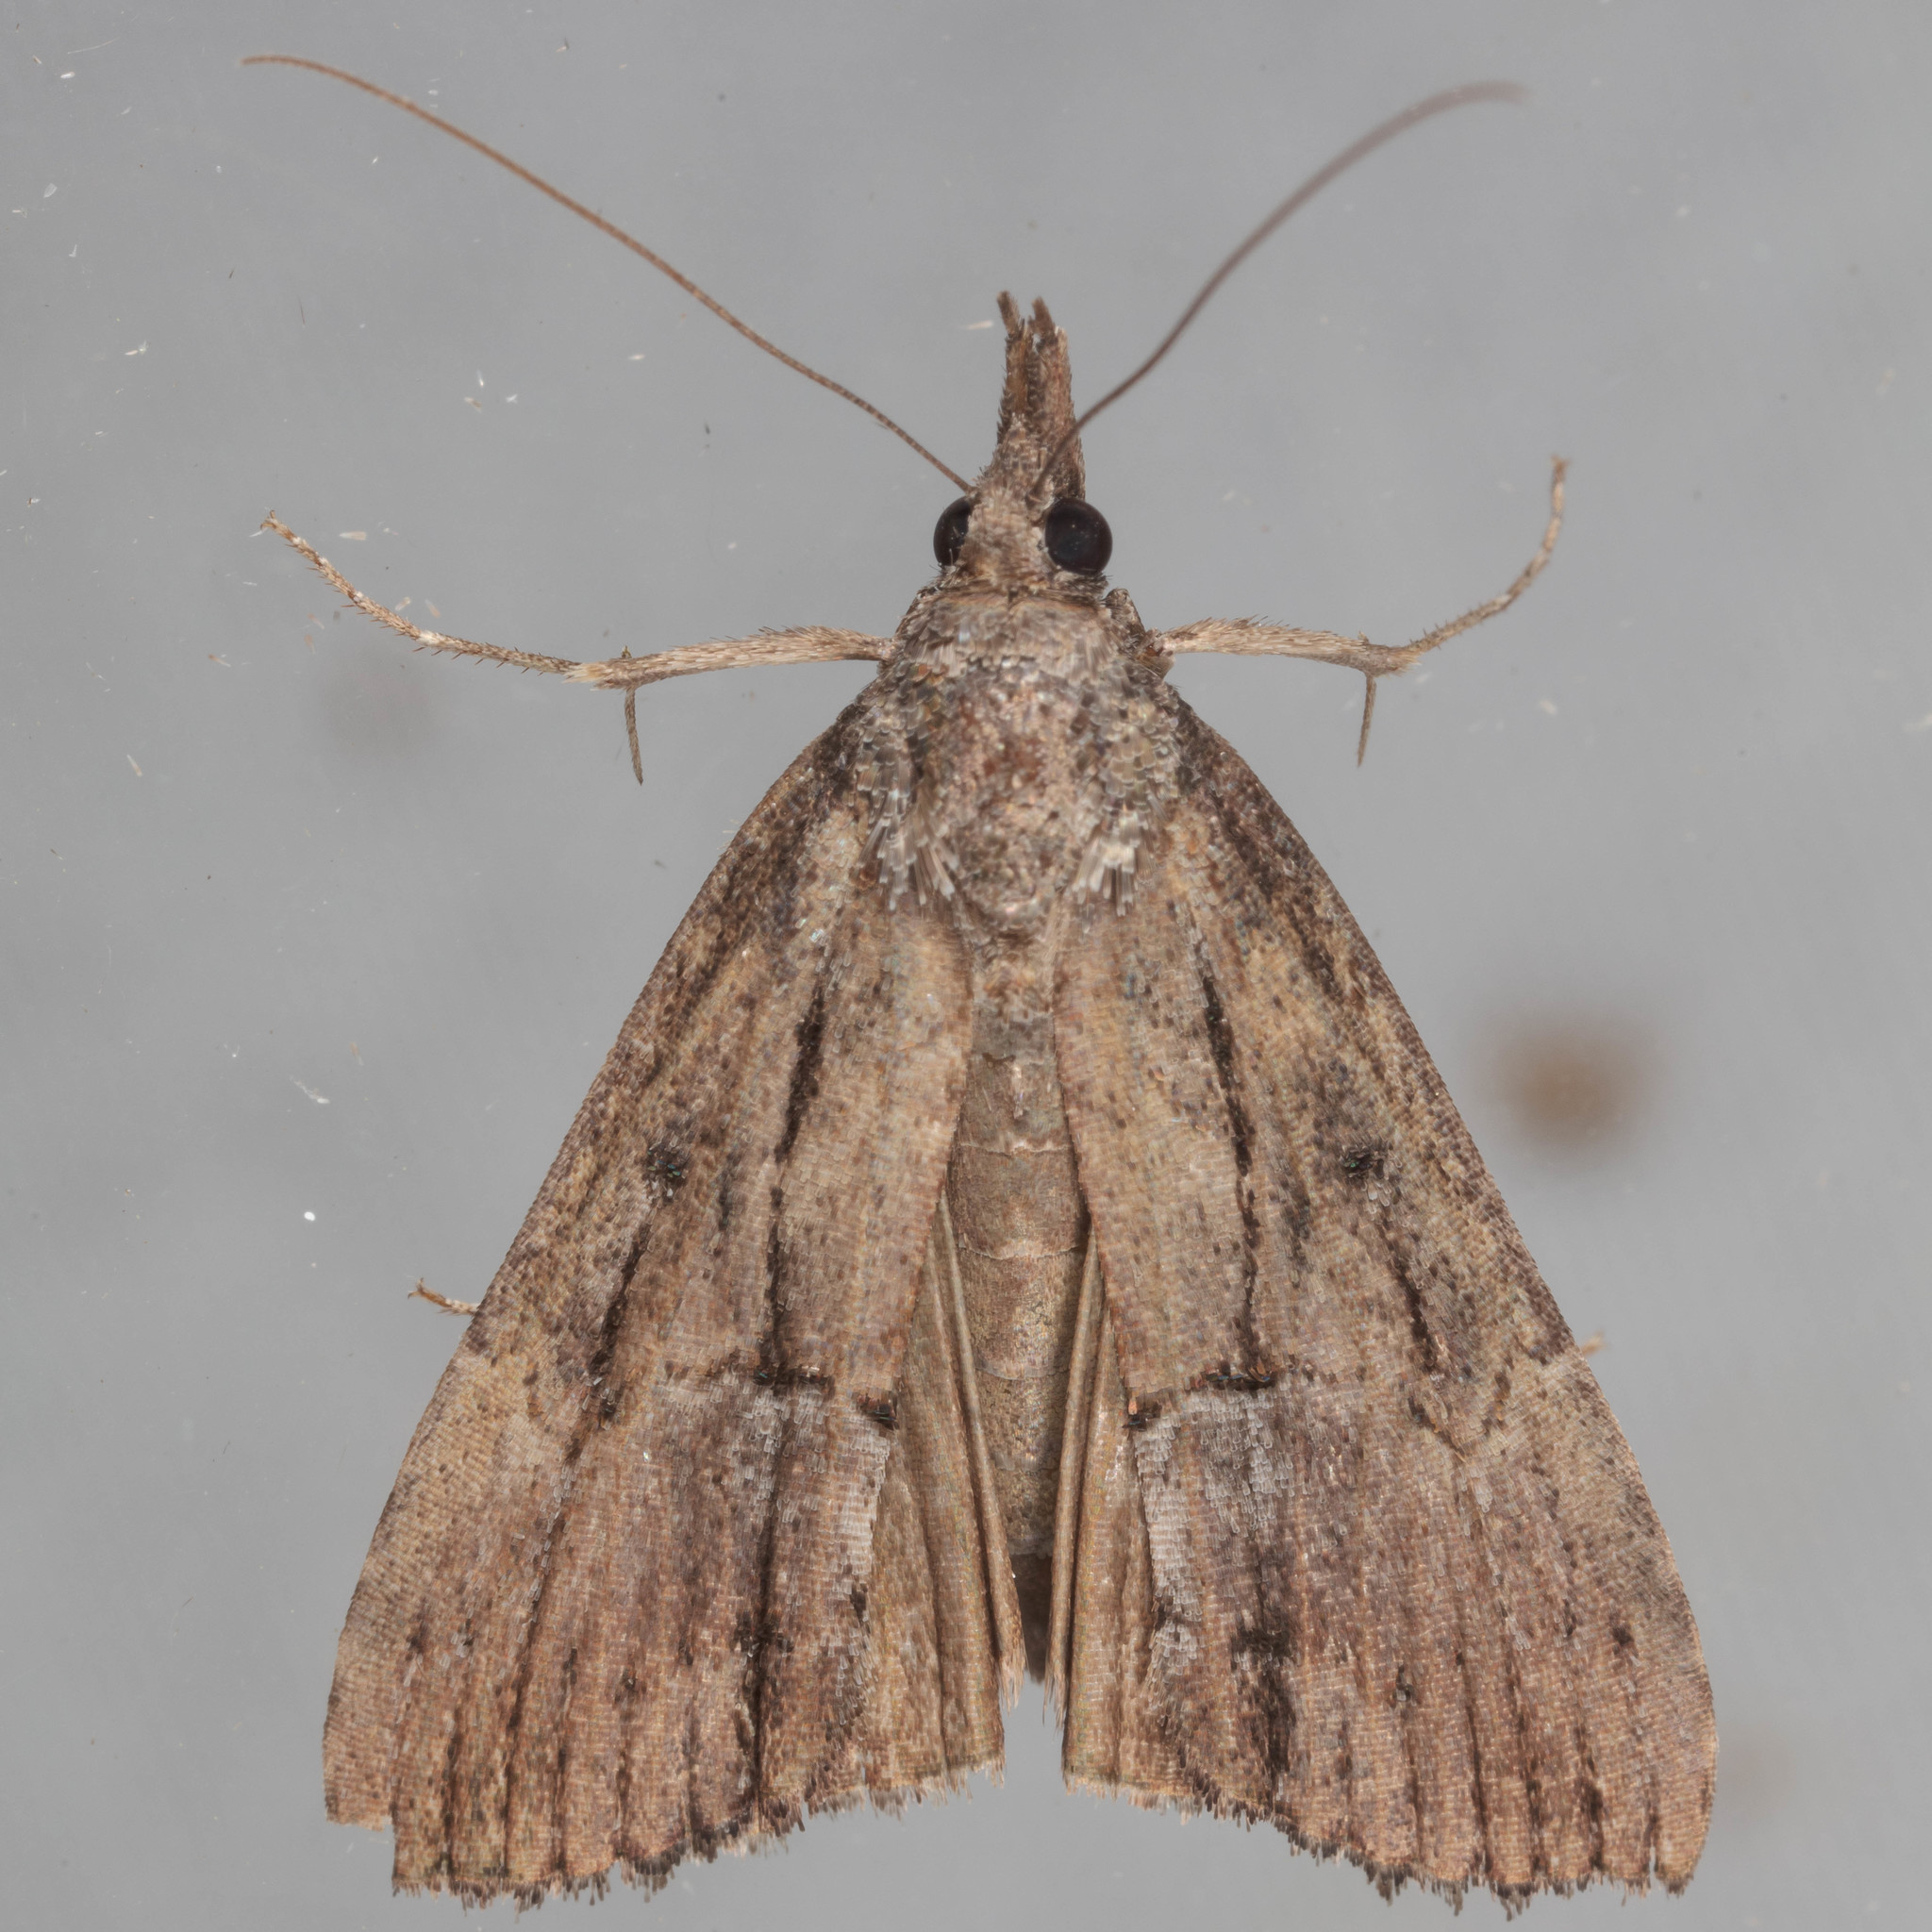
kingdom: Animalia
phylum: Arthropoda
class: Insecta
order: Lepidoptera
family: Erebidae
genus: Hypena
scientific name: Hypena scabra
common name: Green cloverworm
